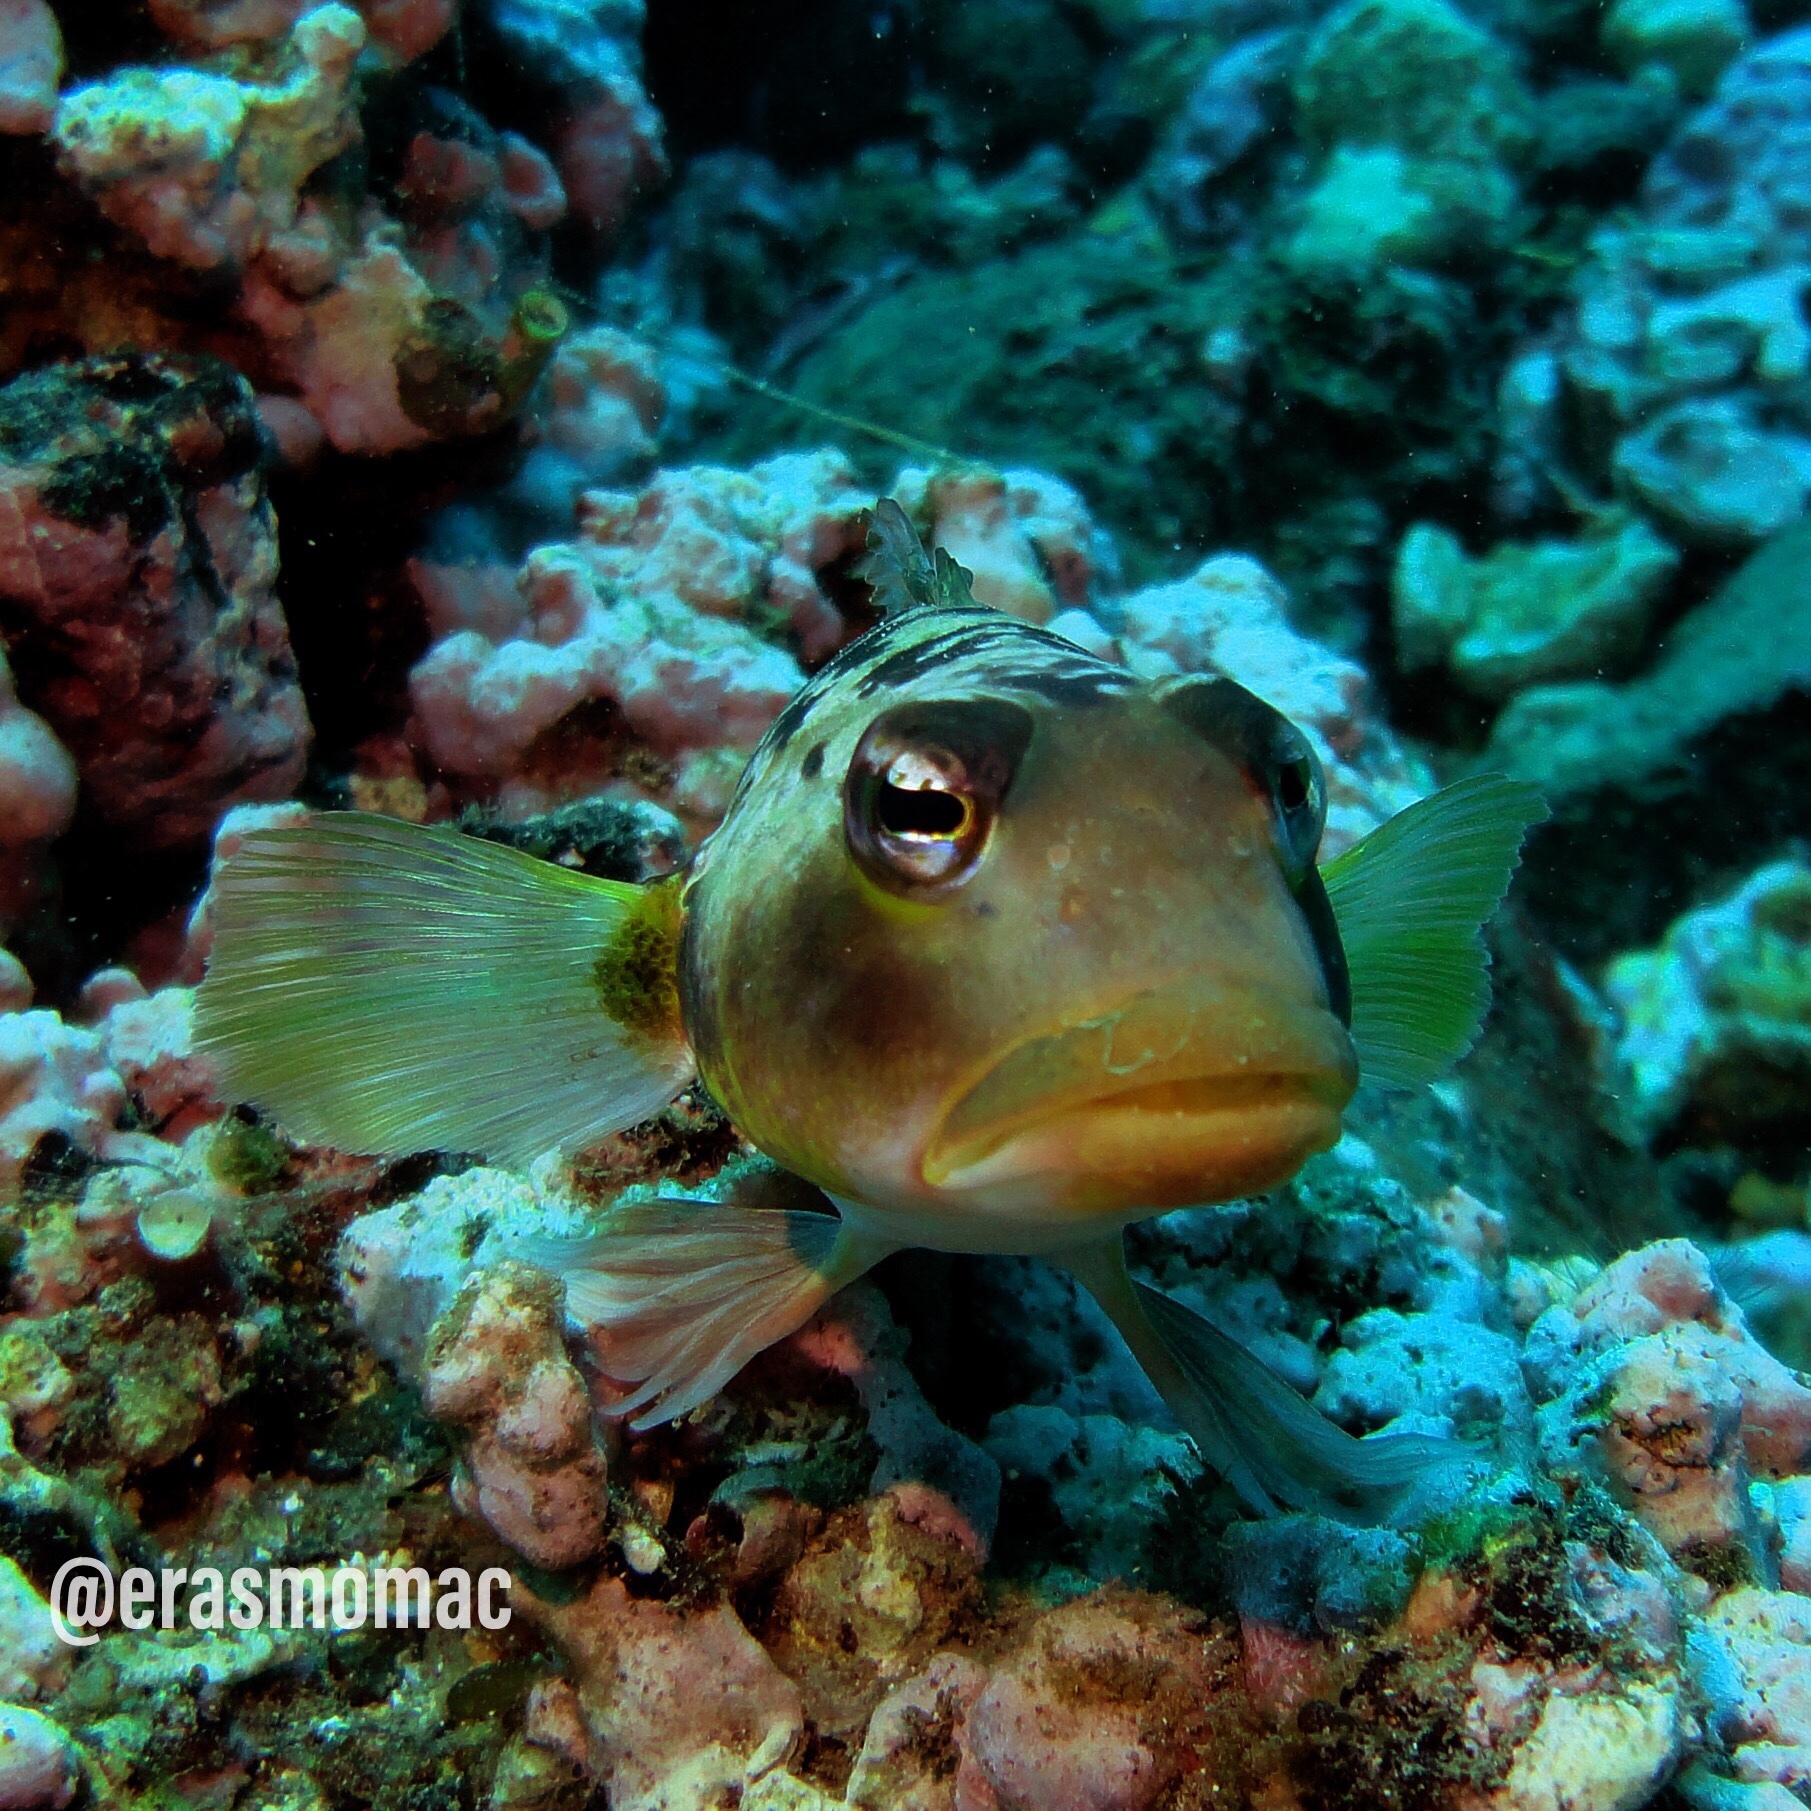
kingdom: Animalia
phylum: Chordata
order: Perciformes
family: Pinguipedidae
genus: Parapercis
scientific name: Parapercis dockinsi
